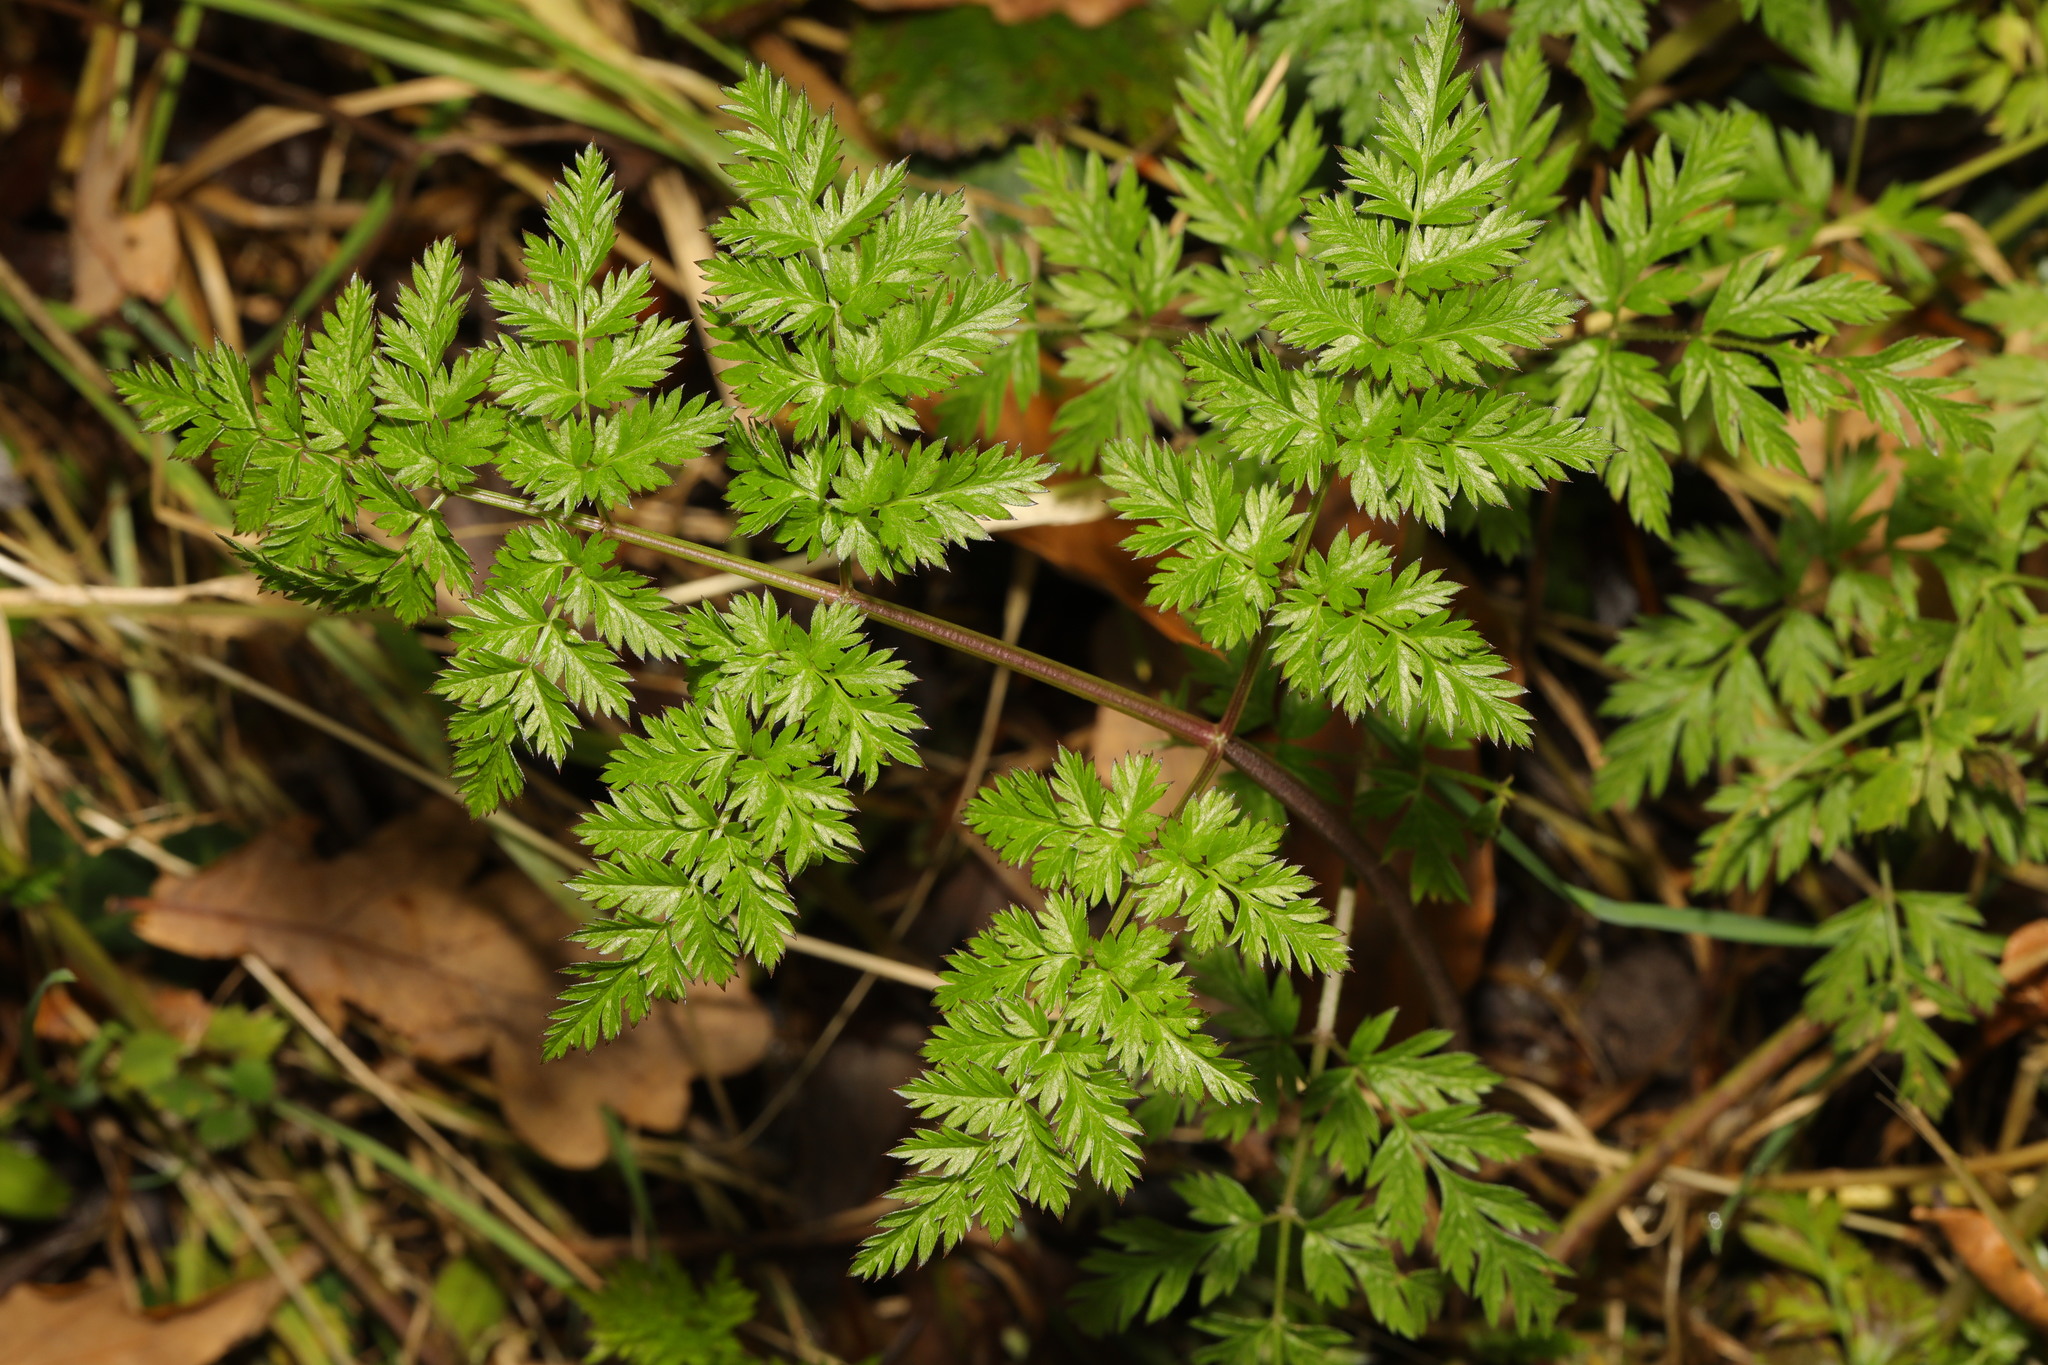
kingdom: Plantae
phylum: Tracheophyta
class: Magnoliopsida
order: Apiales
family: Apiaceae
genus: Anthriscus
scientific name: Anthriscus sylvestris
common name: Cow parsley
